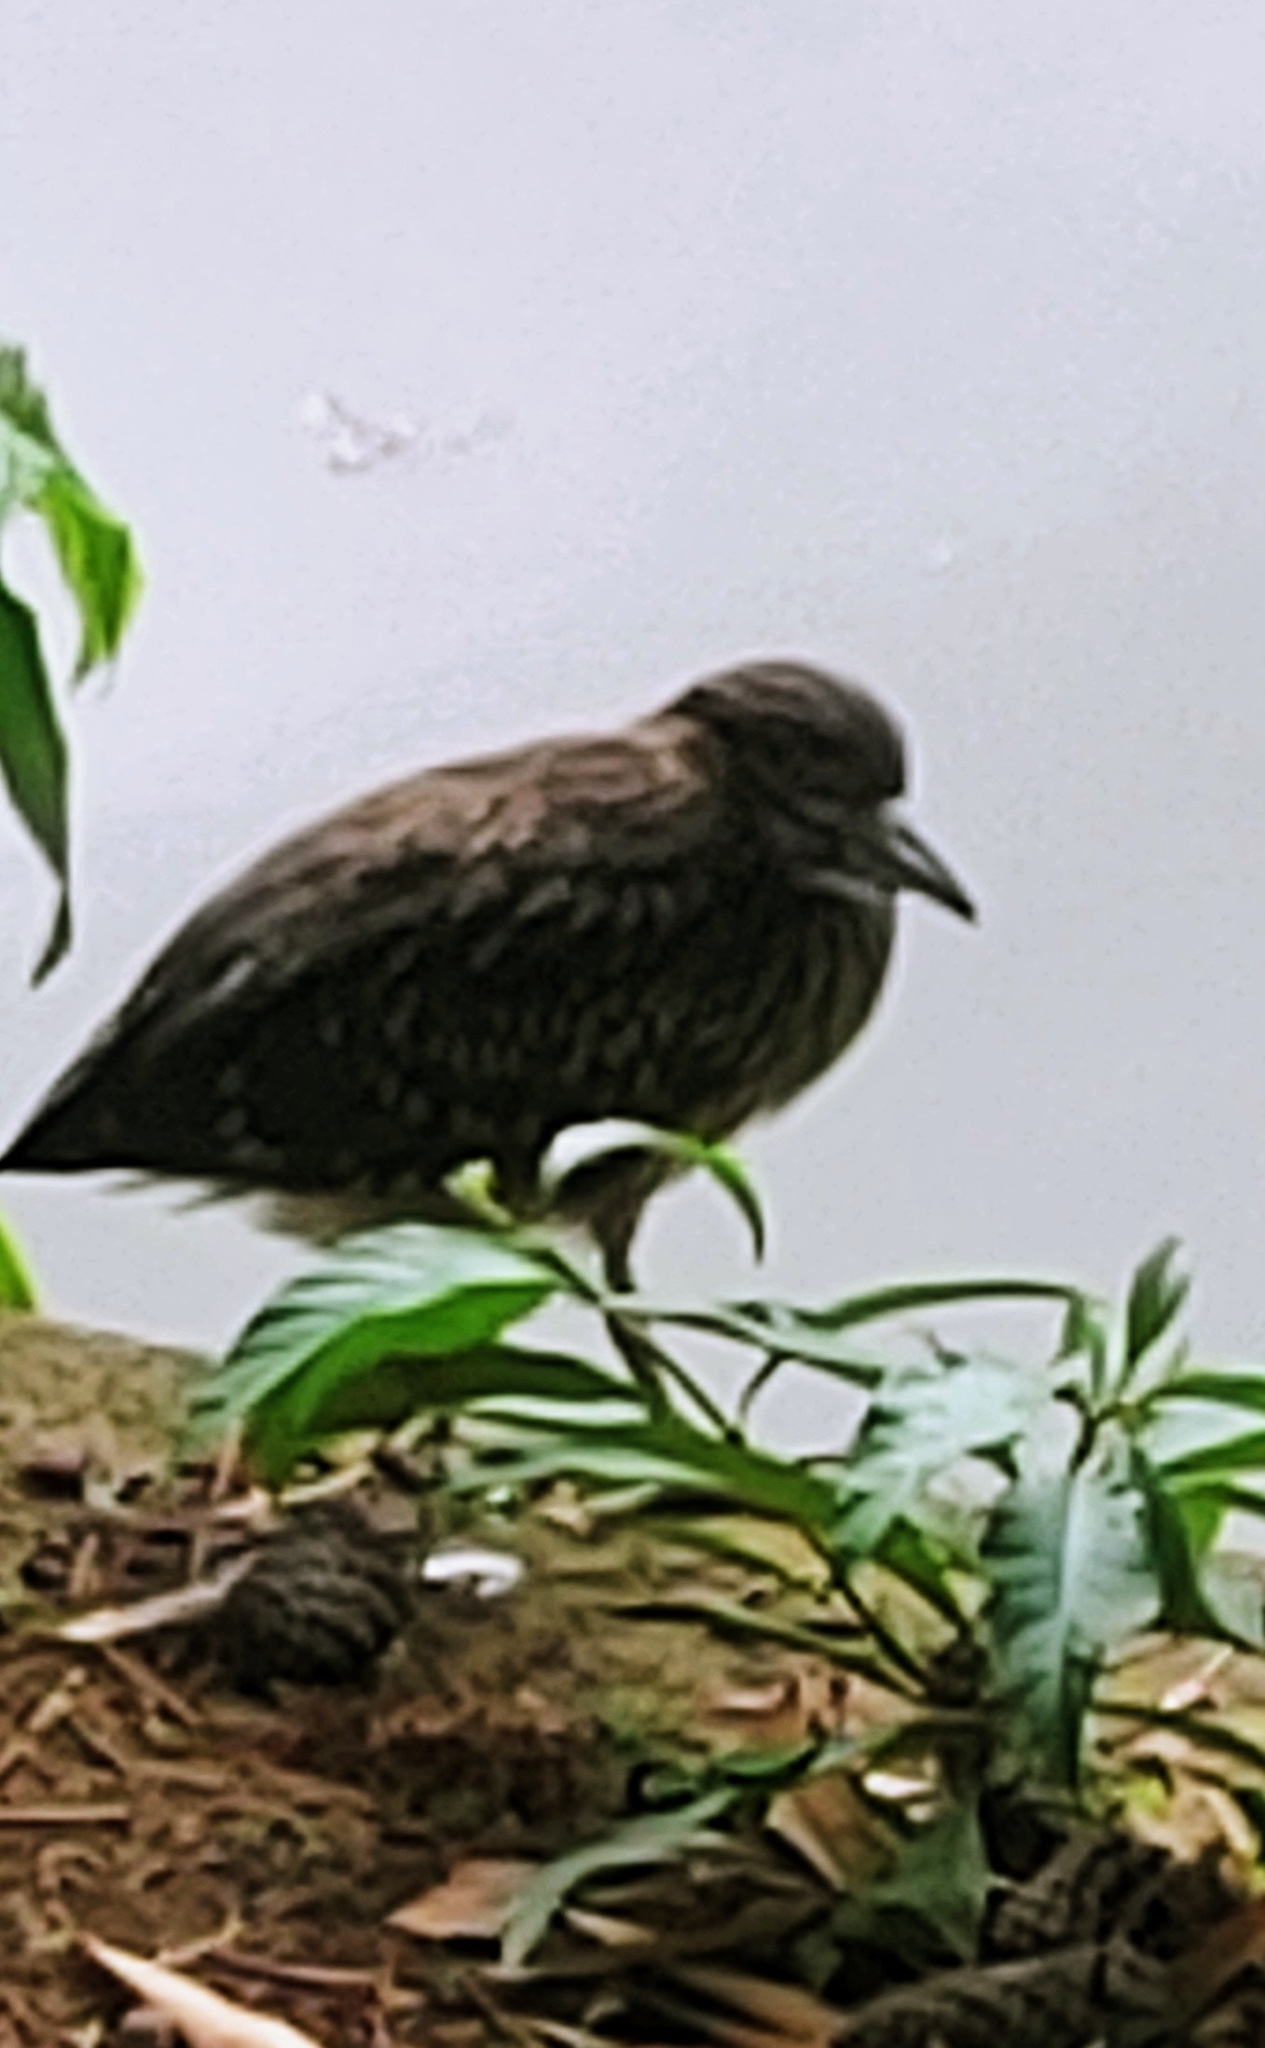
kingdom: Animalia
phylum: Chordata
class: Aves
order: Pelecaniformes
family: Ardeidae
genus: Nycticorax
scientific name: Nycticorax nycticorax
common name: Black-crowned night heron
